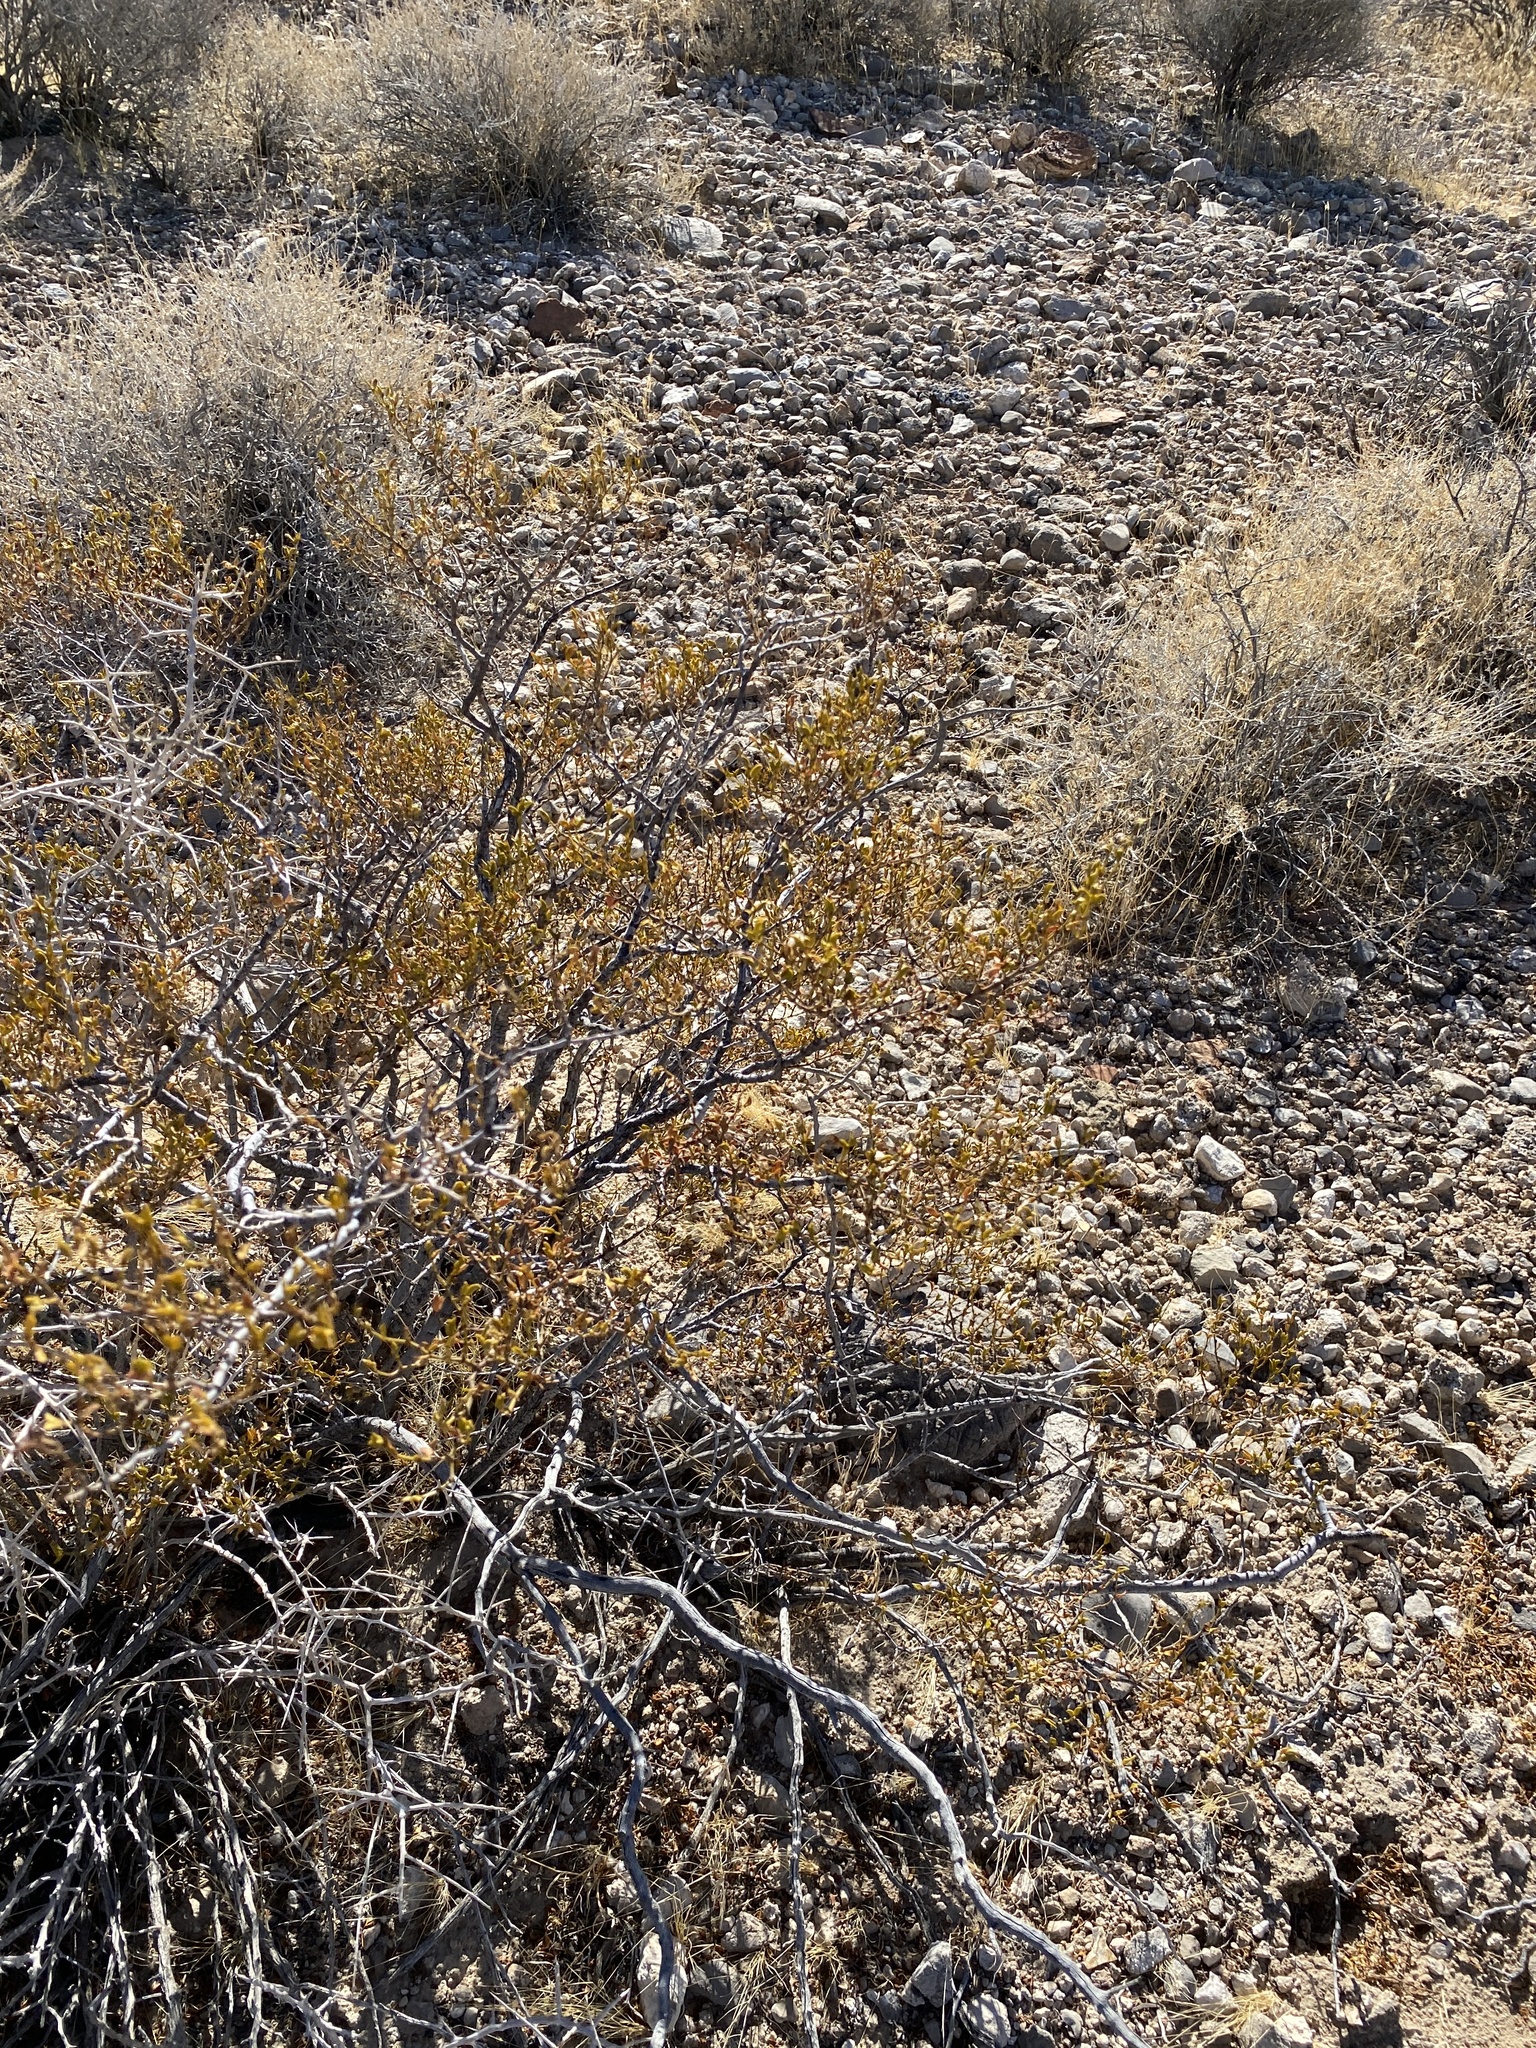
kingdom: Plantae
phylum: Tracheophyta
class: Magnoliopsida
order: Zygophyllales
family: Zygophyllaceae
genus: Larrea
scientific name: Larrea tridentata
